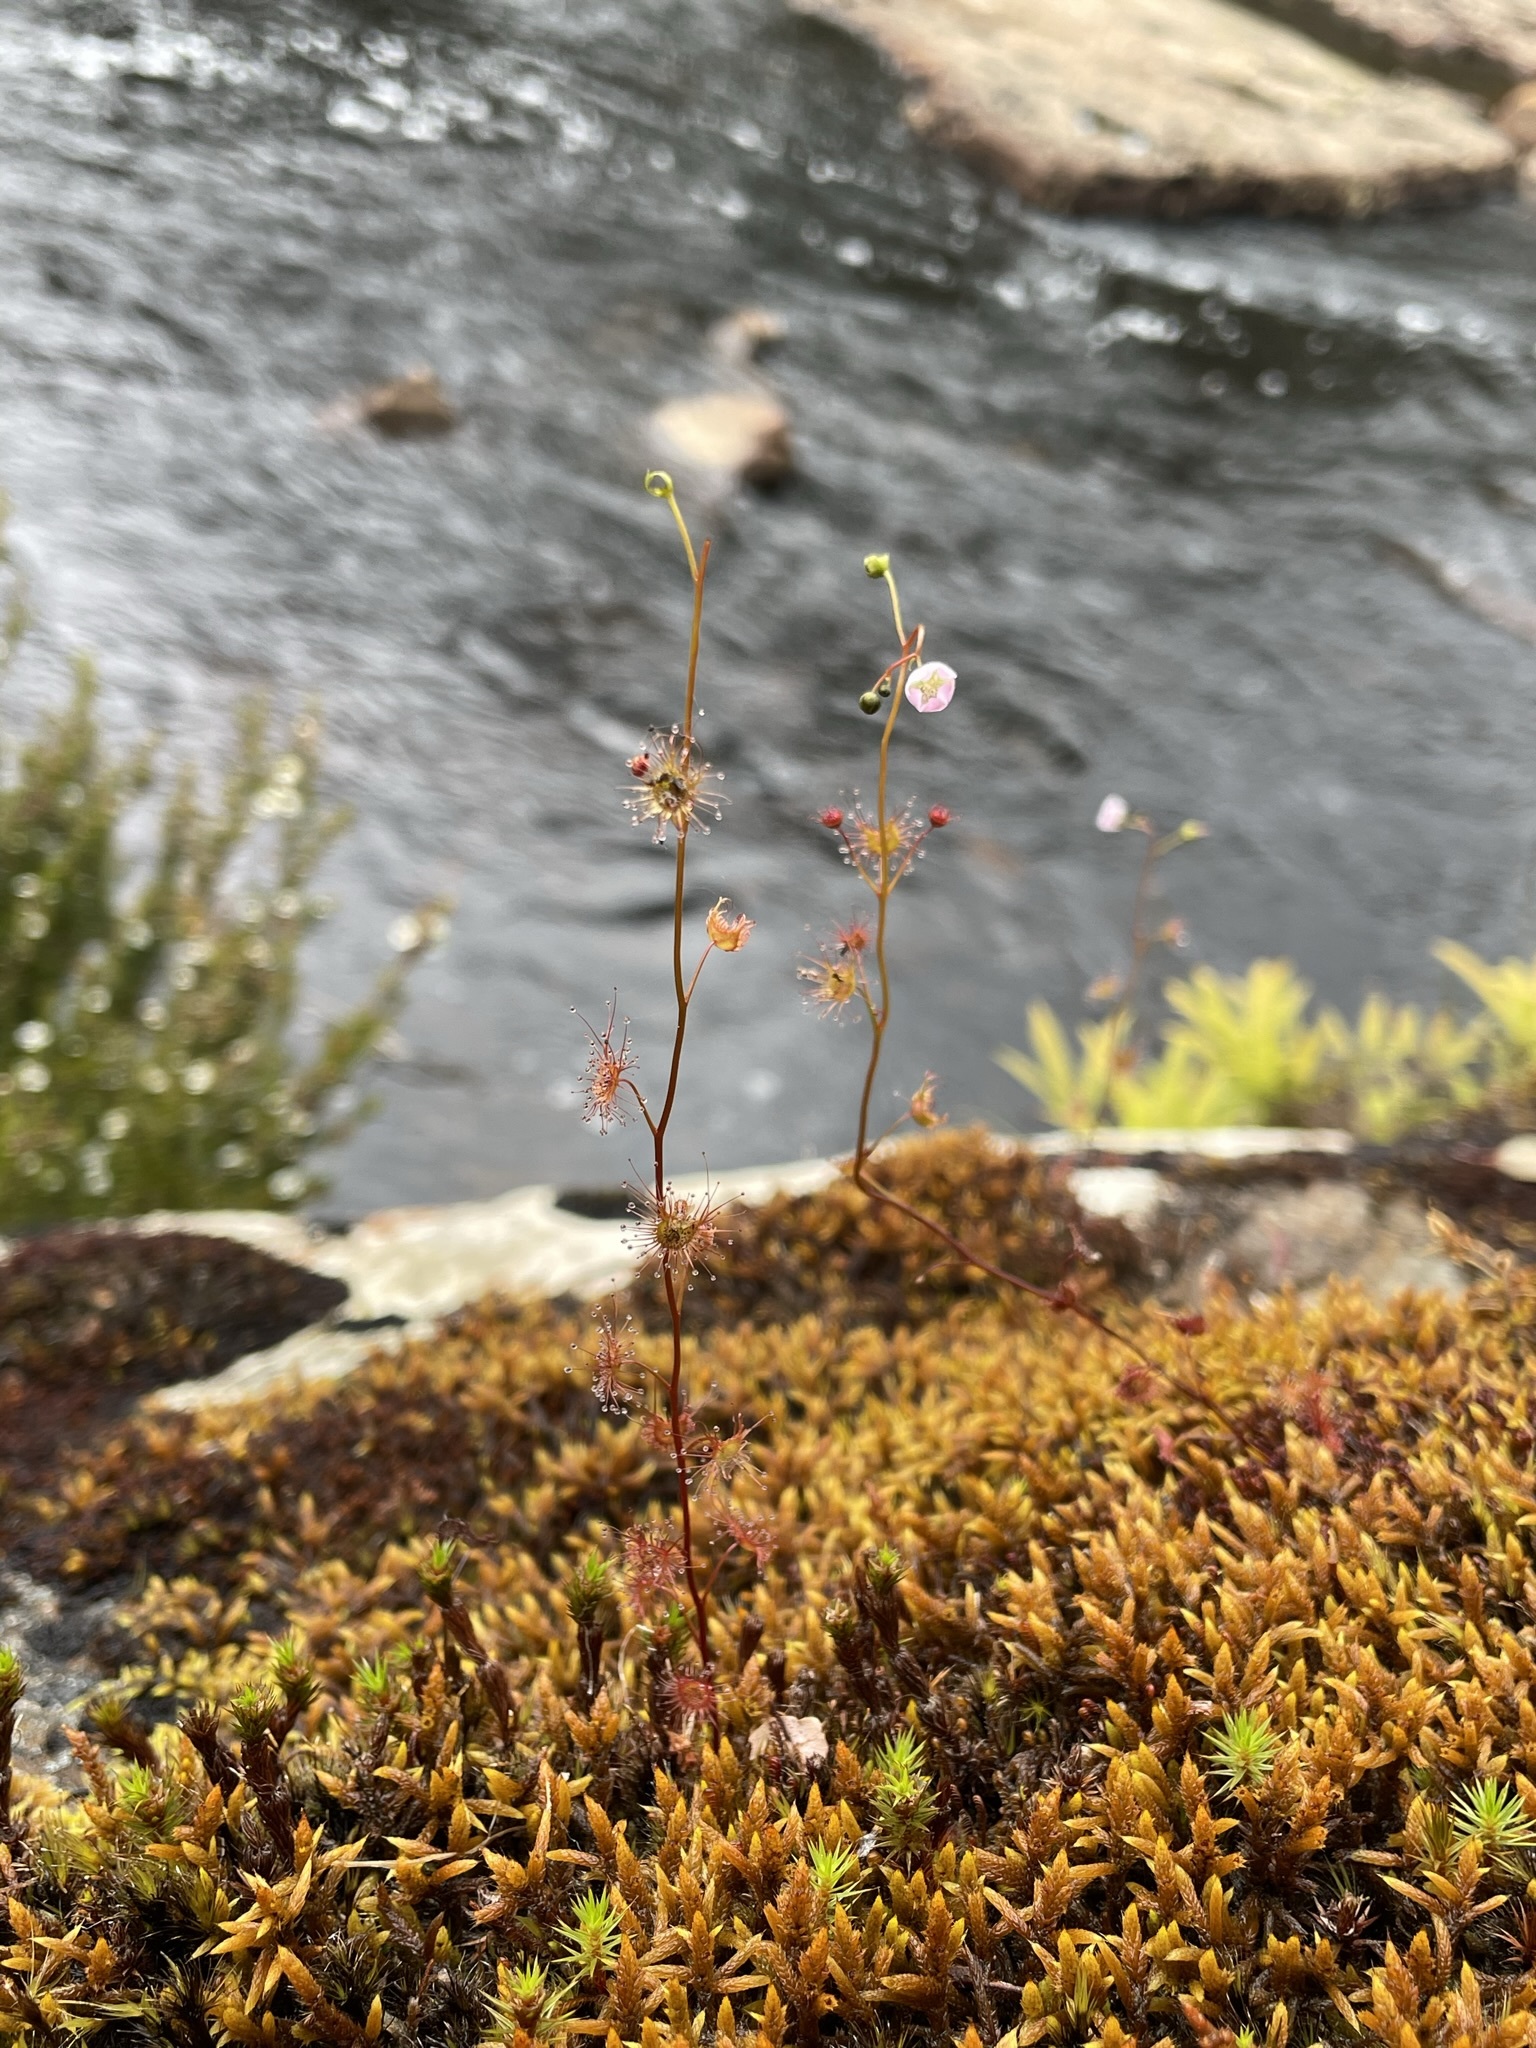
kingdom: Plantae
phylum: Tracheophyta
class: Magnoliopsida
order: Caryophyllales
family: Droseraceae
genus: Drosera
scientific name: Drosera peltata
